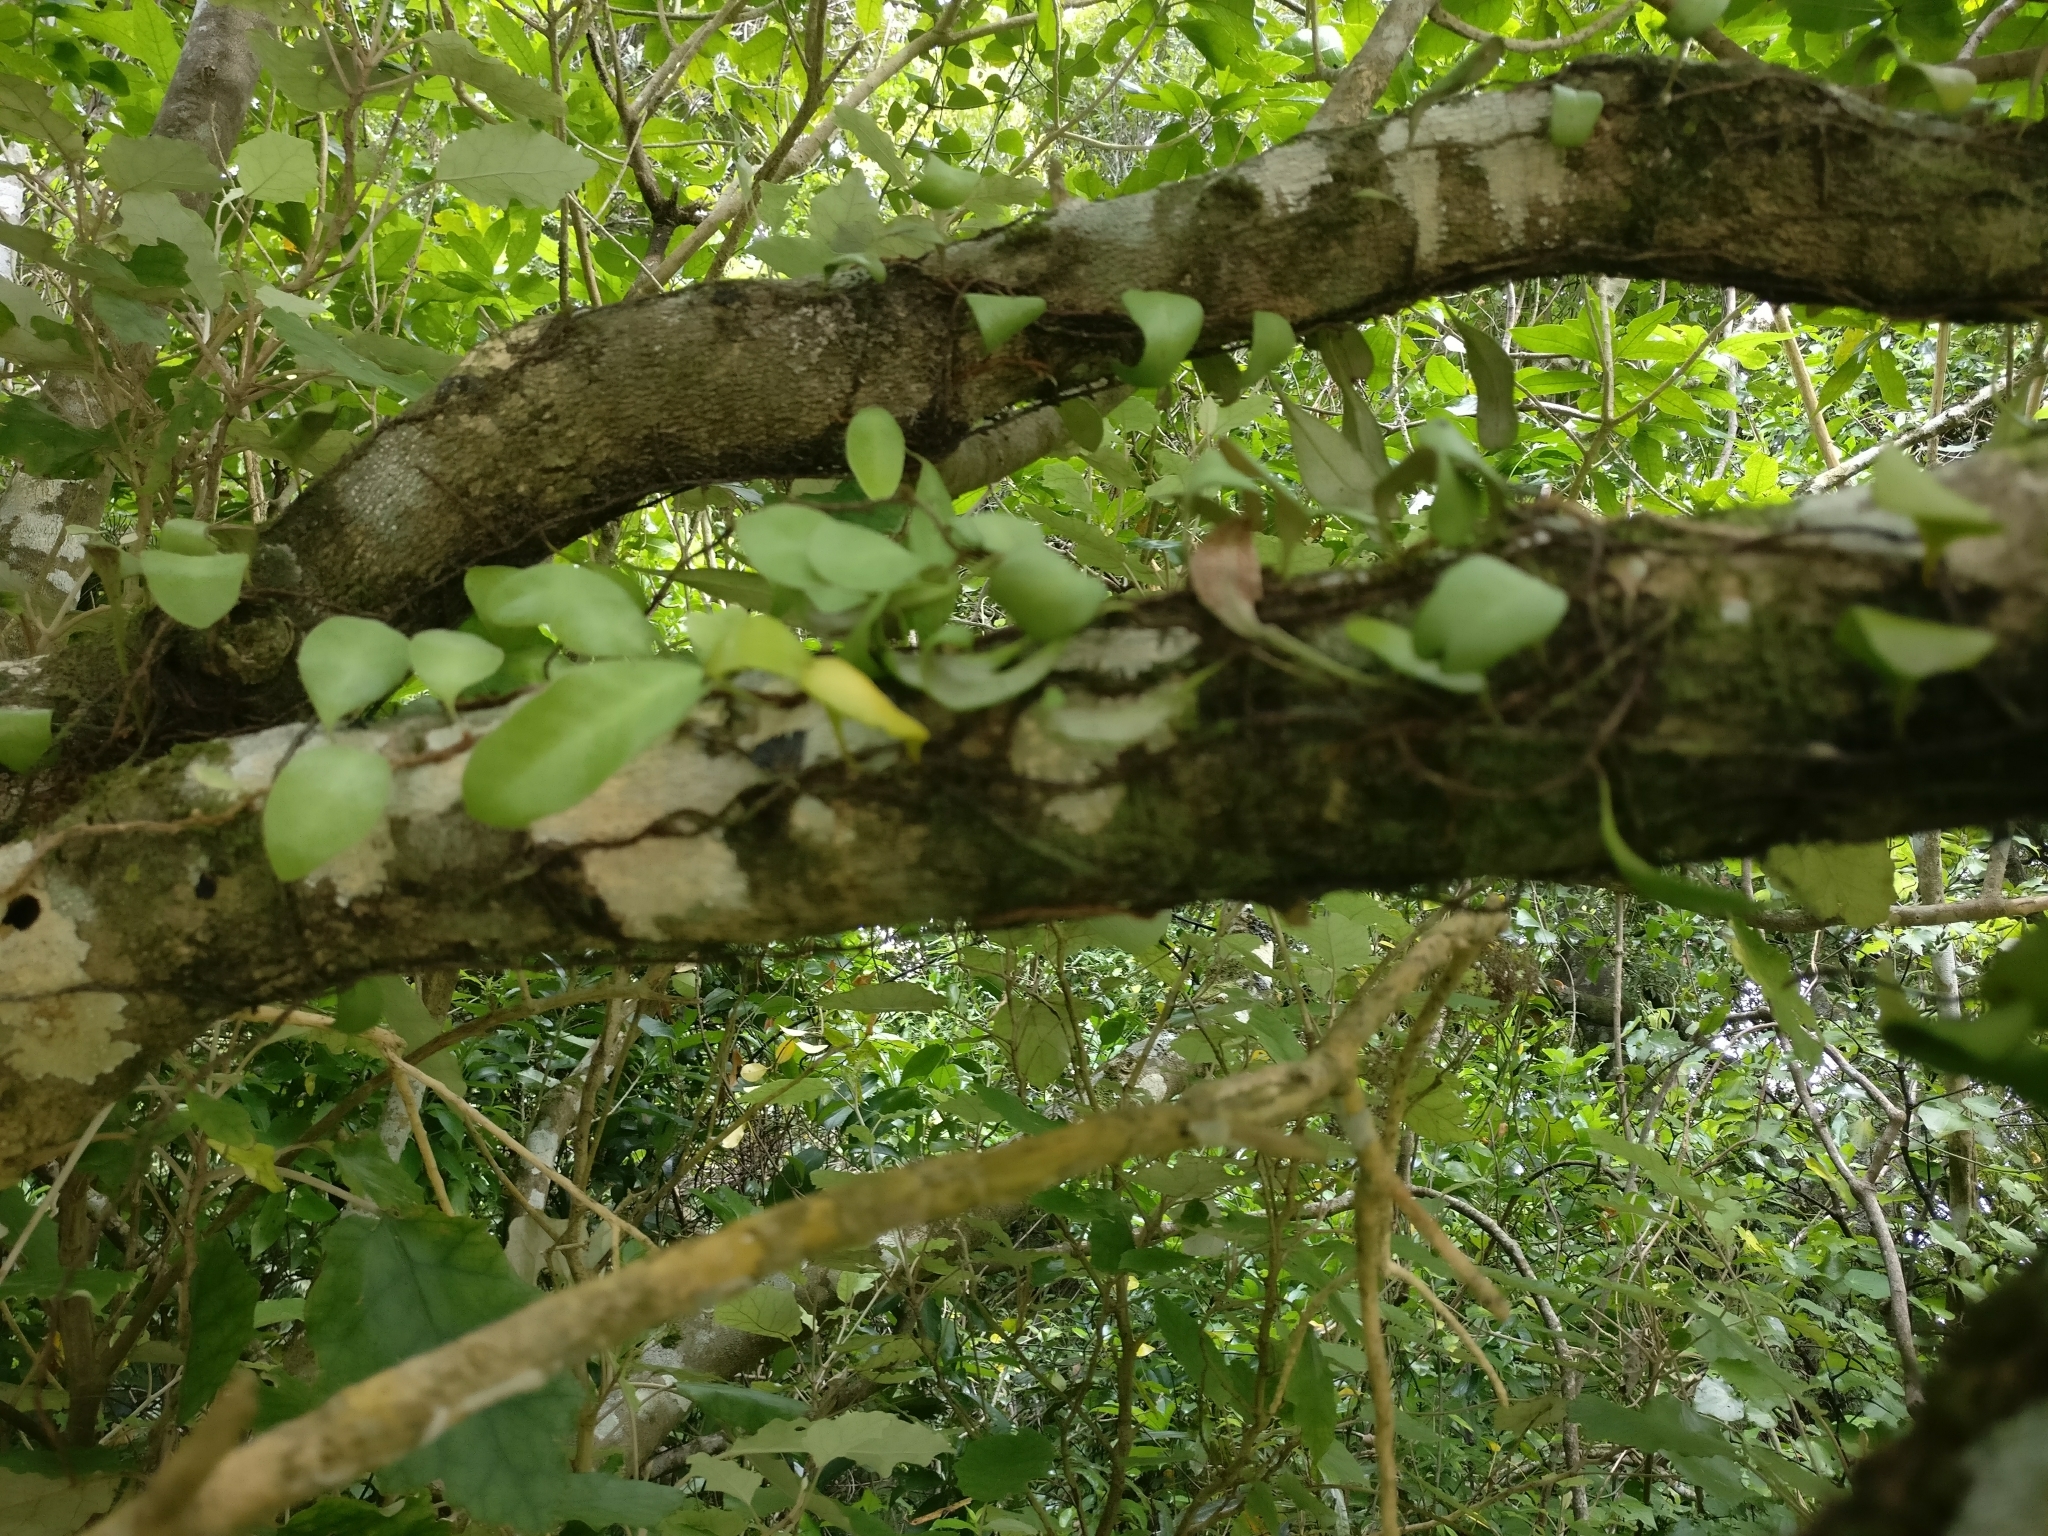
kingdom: Plantae
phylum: Tracheophyta
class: Polypodiopsida
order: Polypodiales
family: Polypodiaceae
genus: Pyrrosia
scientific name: Pyrrosia eleagnifolia
